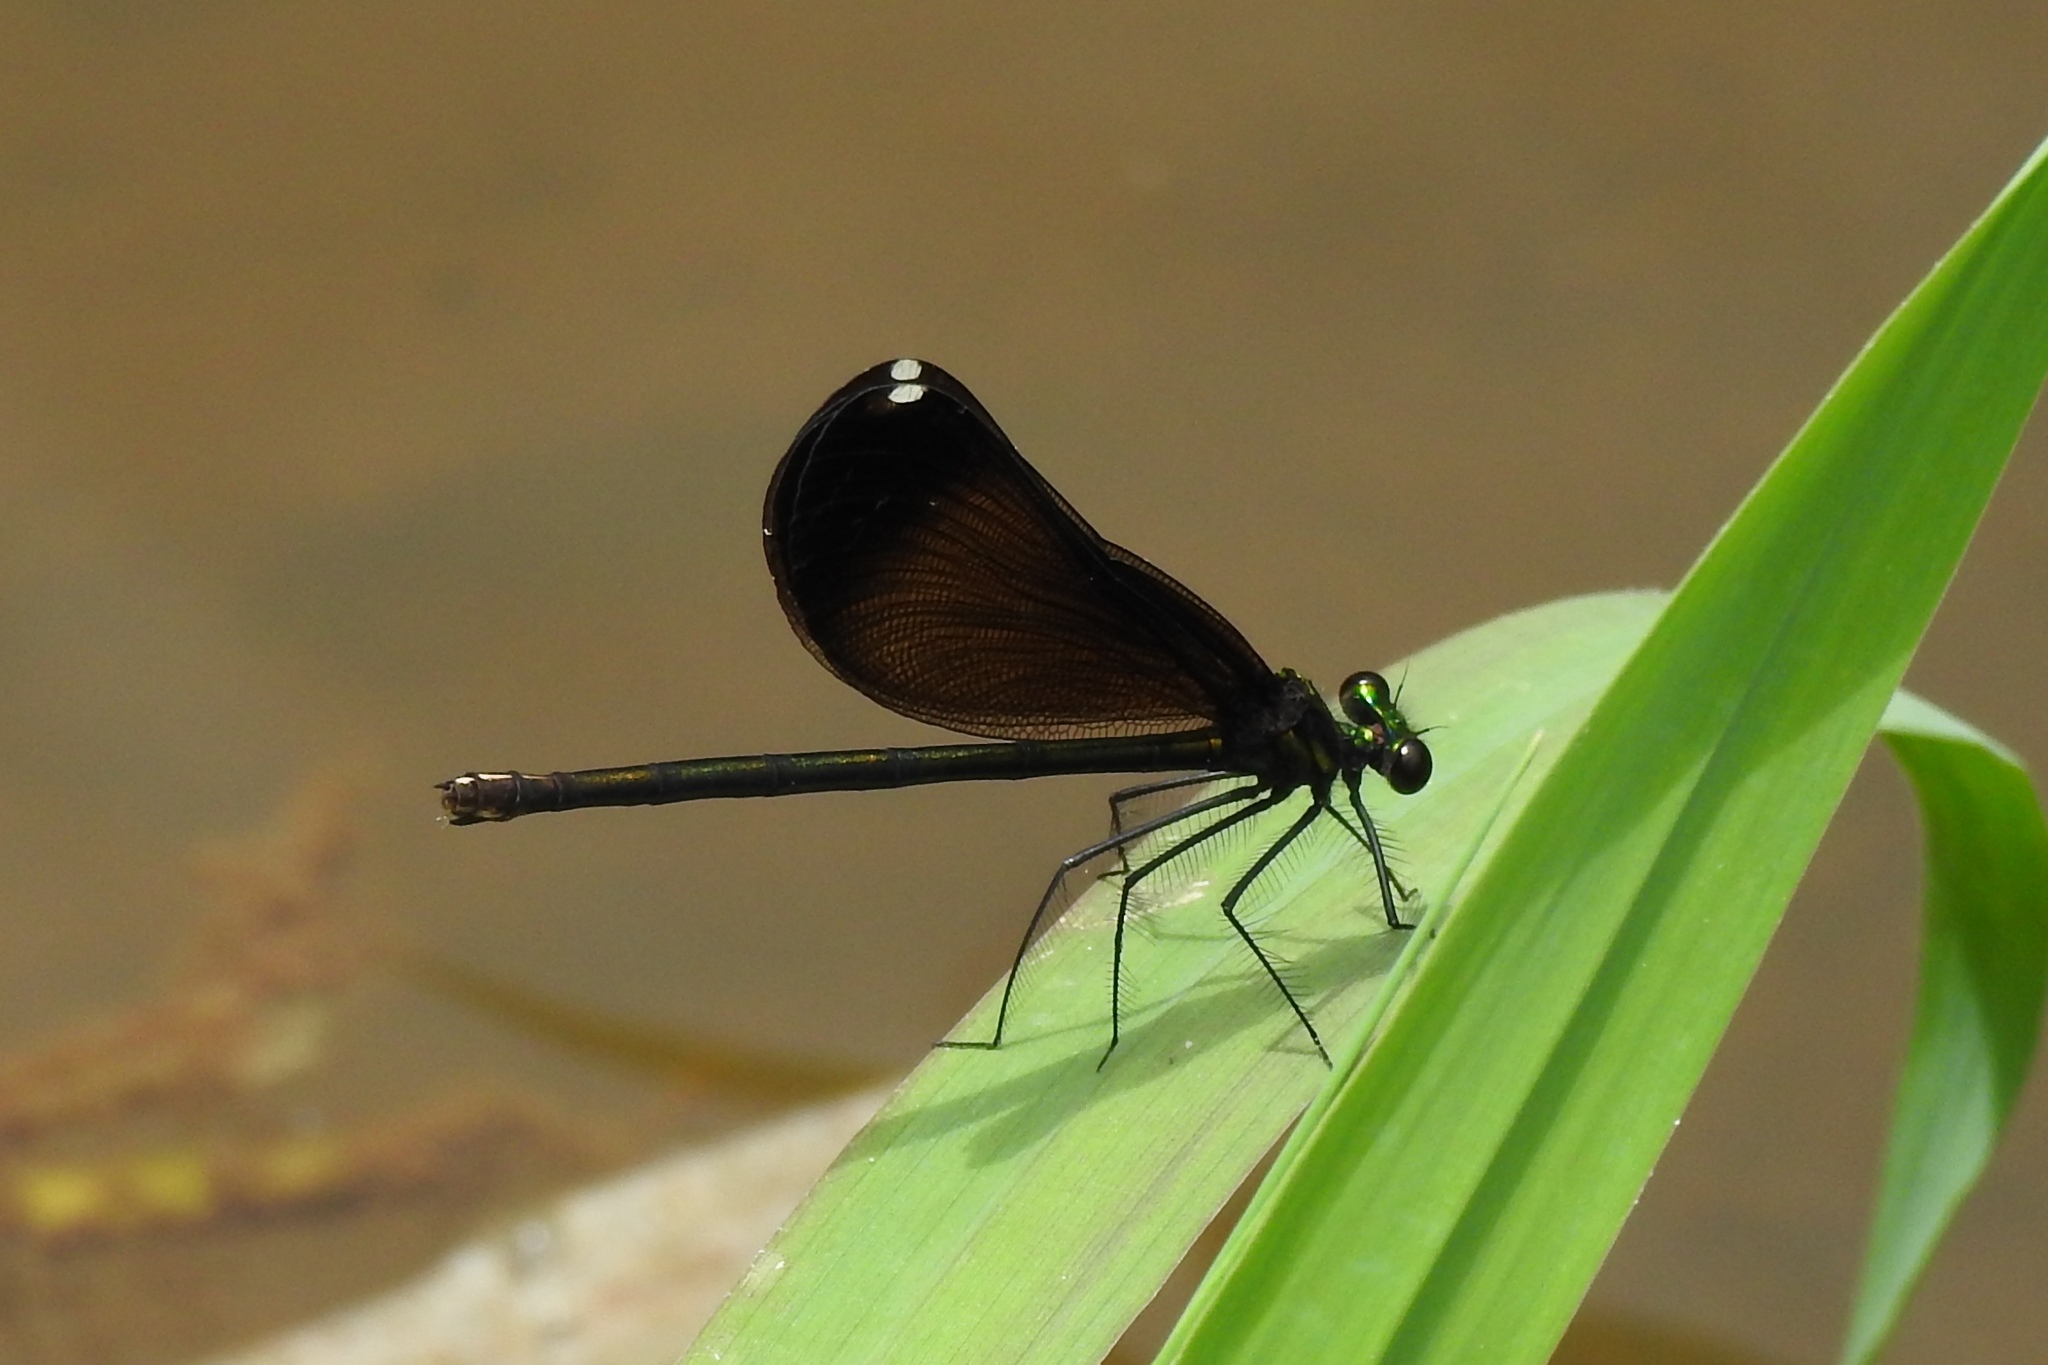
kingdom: Animalia
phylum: Arthropoda
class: Insecta
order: Odonata
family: Calopterygidae
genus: Calopteryx
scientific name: Calopteryx maculata
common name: Ebony jewelwing
